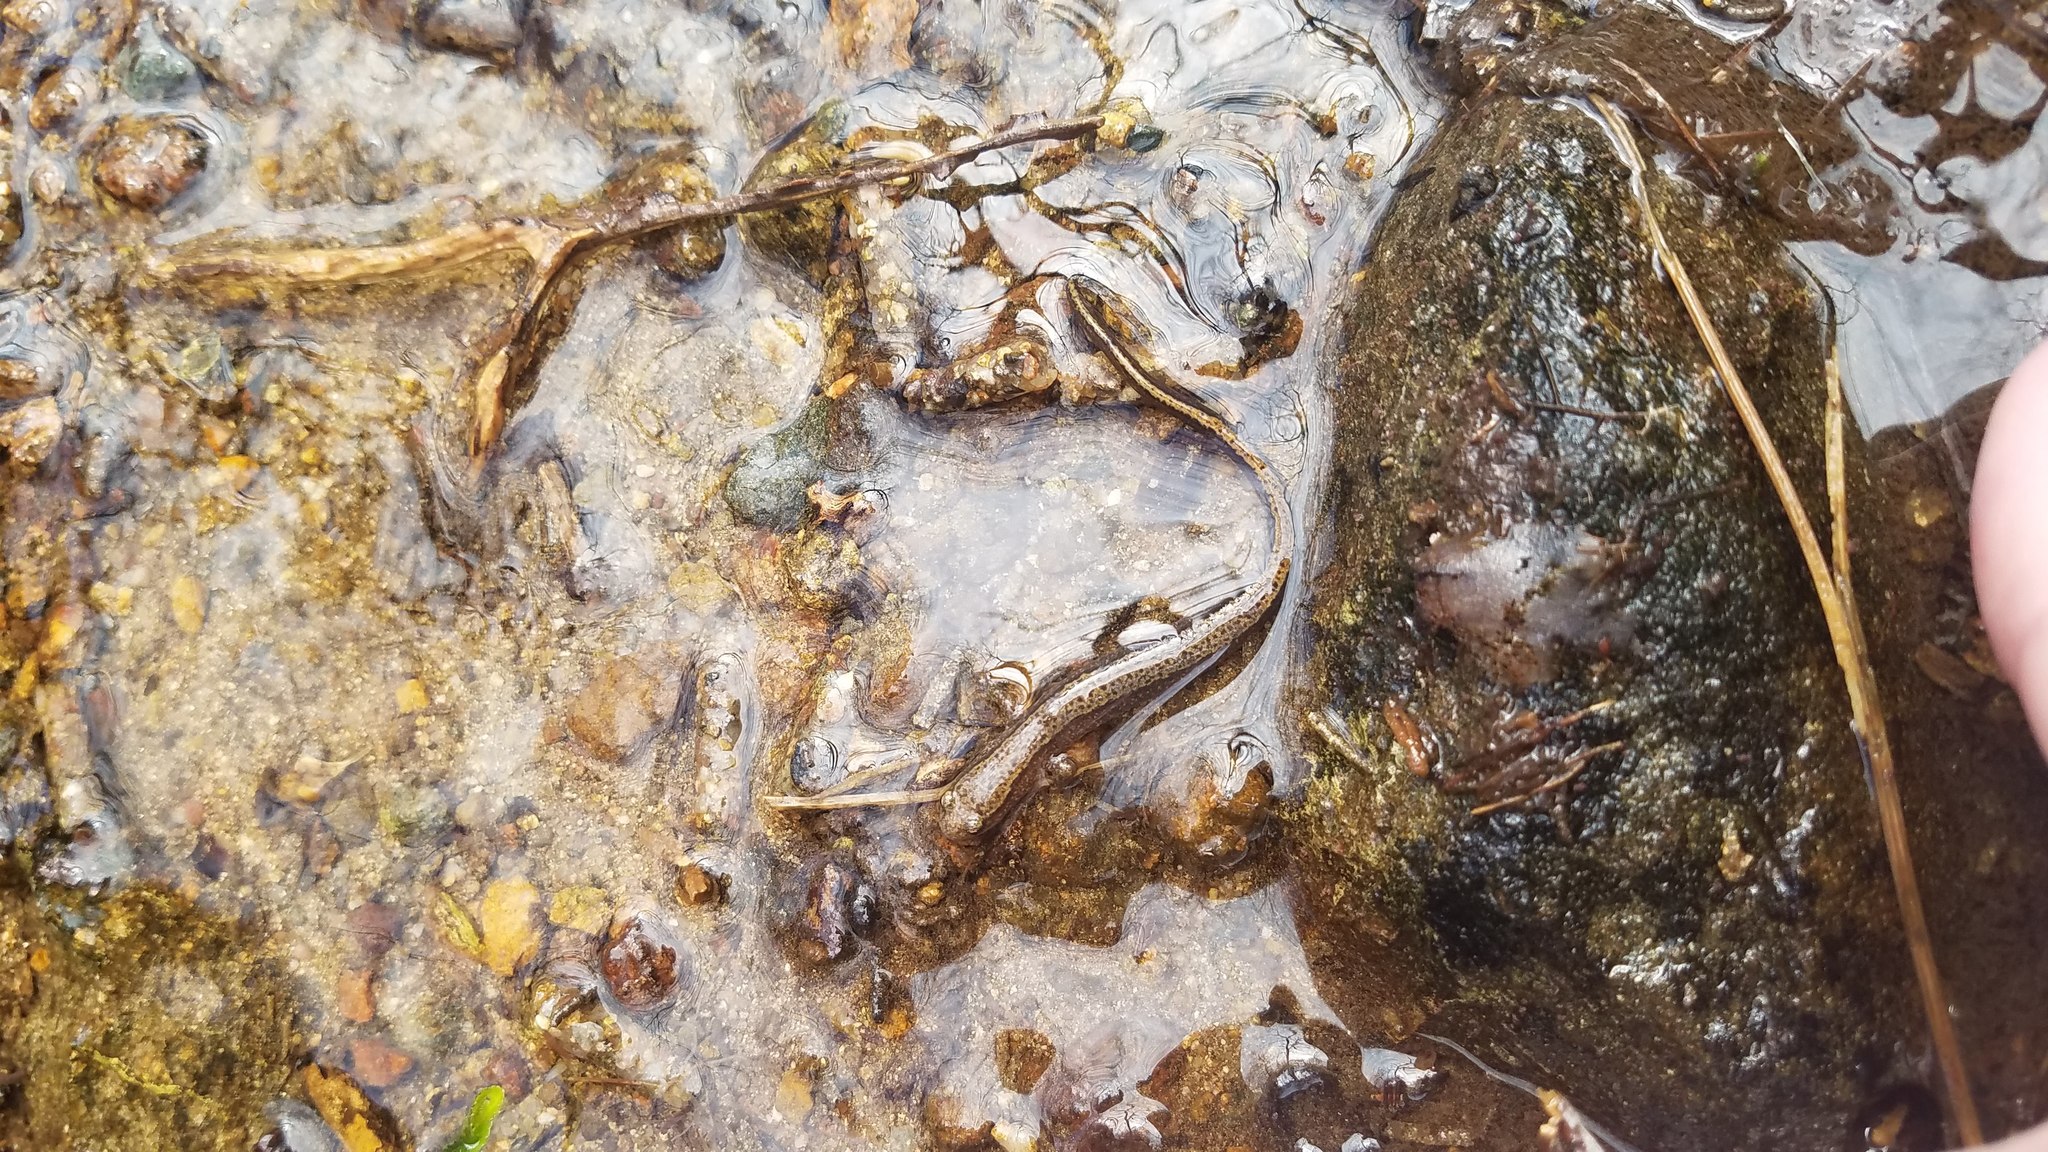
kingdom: Animalia
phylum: Chordata
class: Amphibia
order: Caudata
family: Plethodontidae
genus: Eurycea
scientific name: Eurycea bislineata
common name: Northern two-lined salamander
